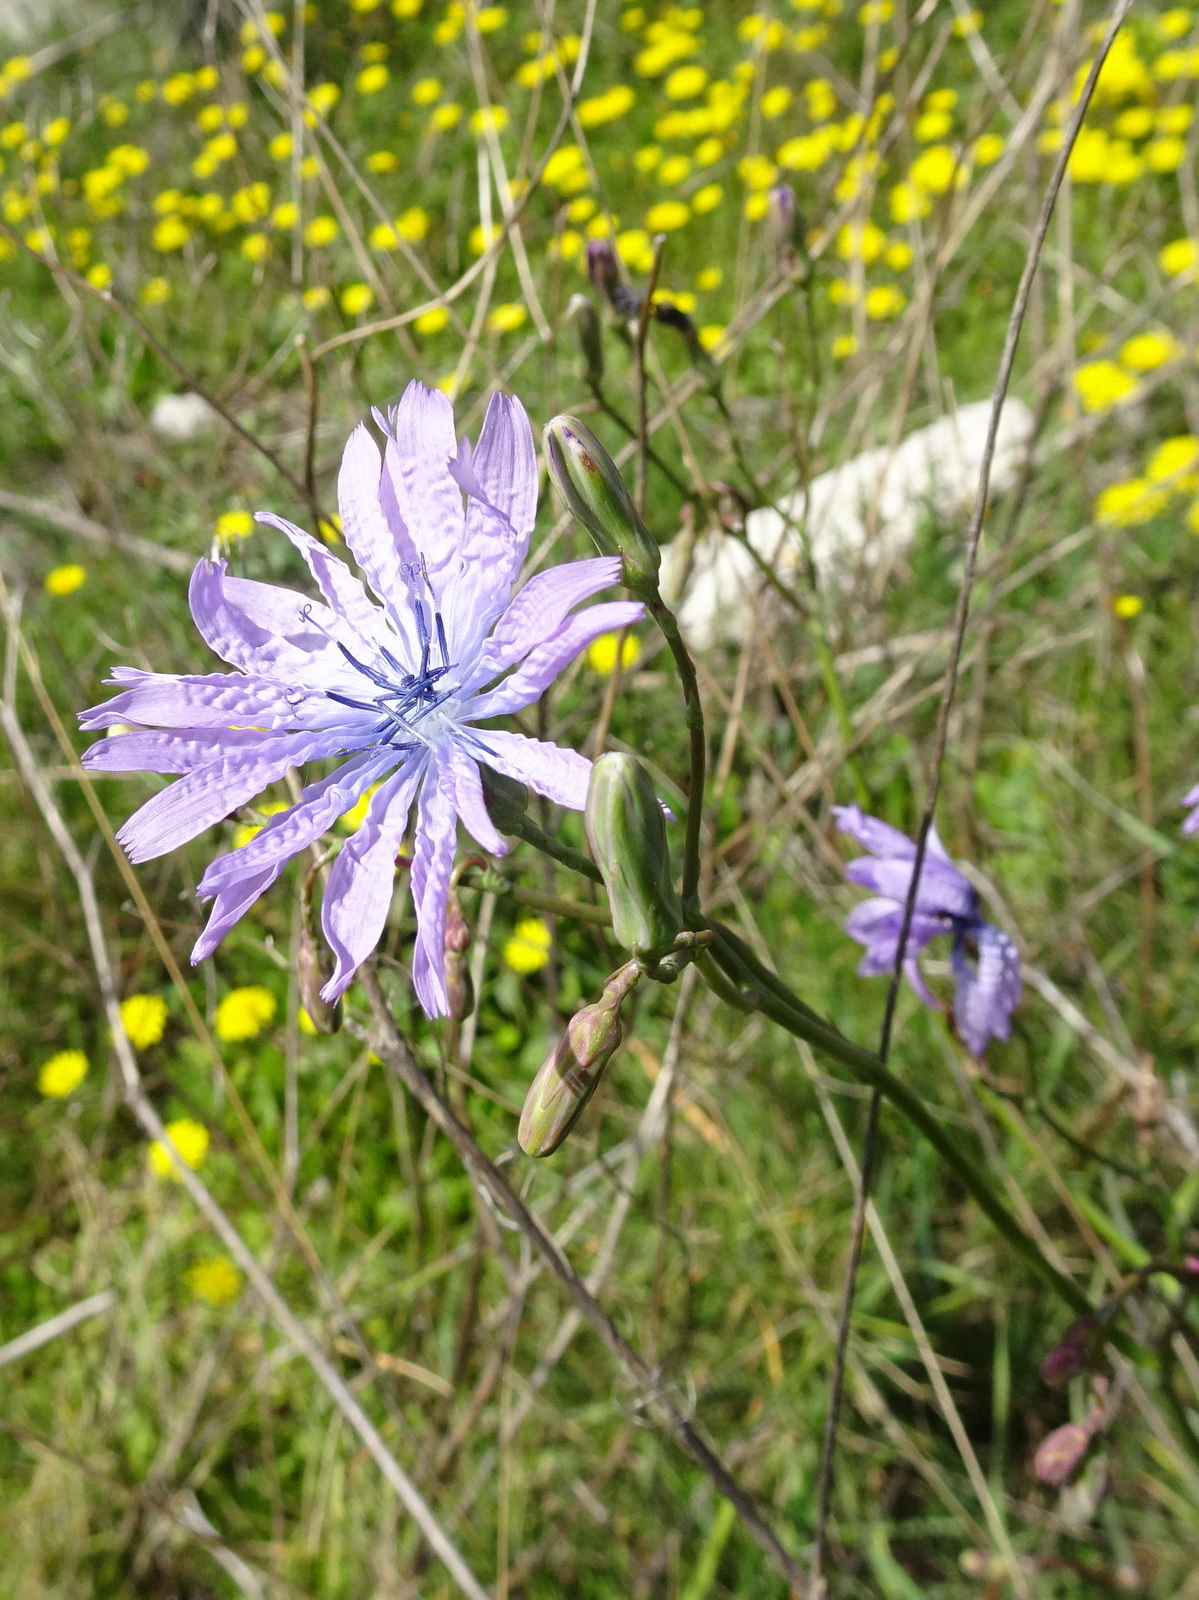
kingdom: Plantae
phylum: Tracheophyta
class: Magnoliopsida
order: Asterales
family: Asteraceae
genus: Lactuca
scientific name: Lactuca perennis
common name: Mountain lettuce
